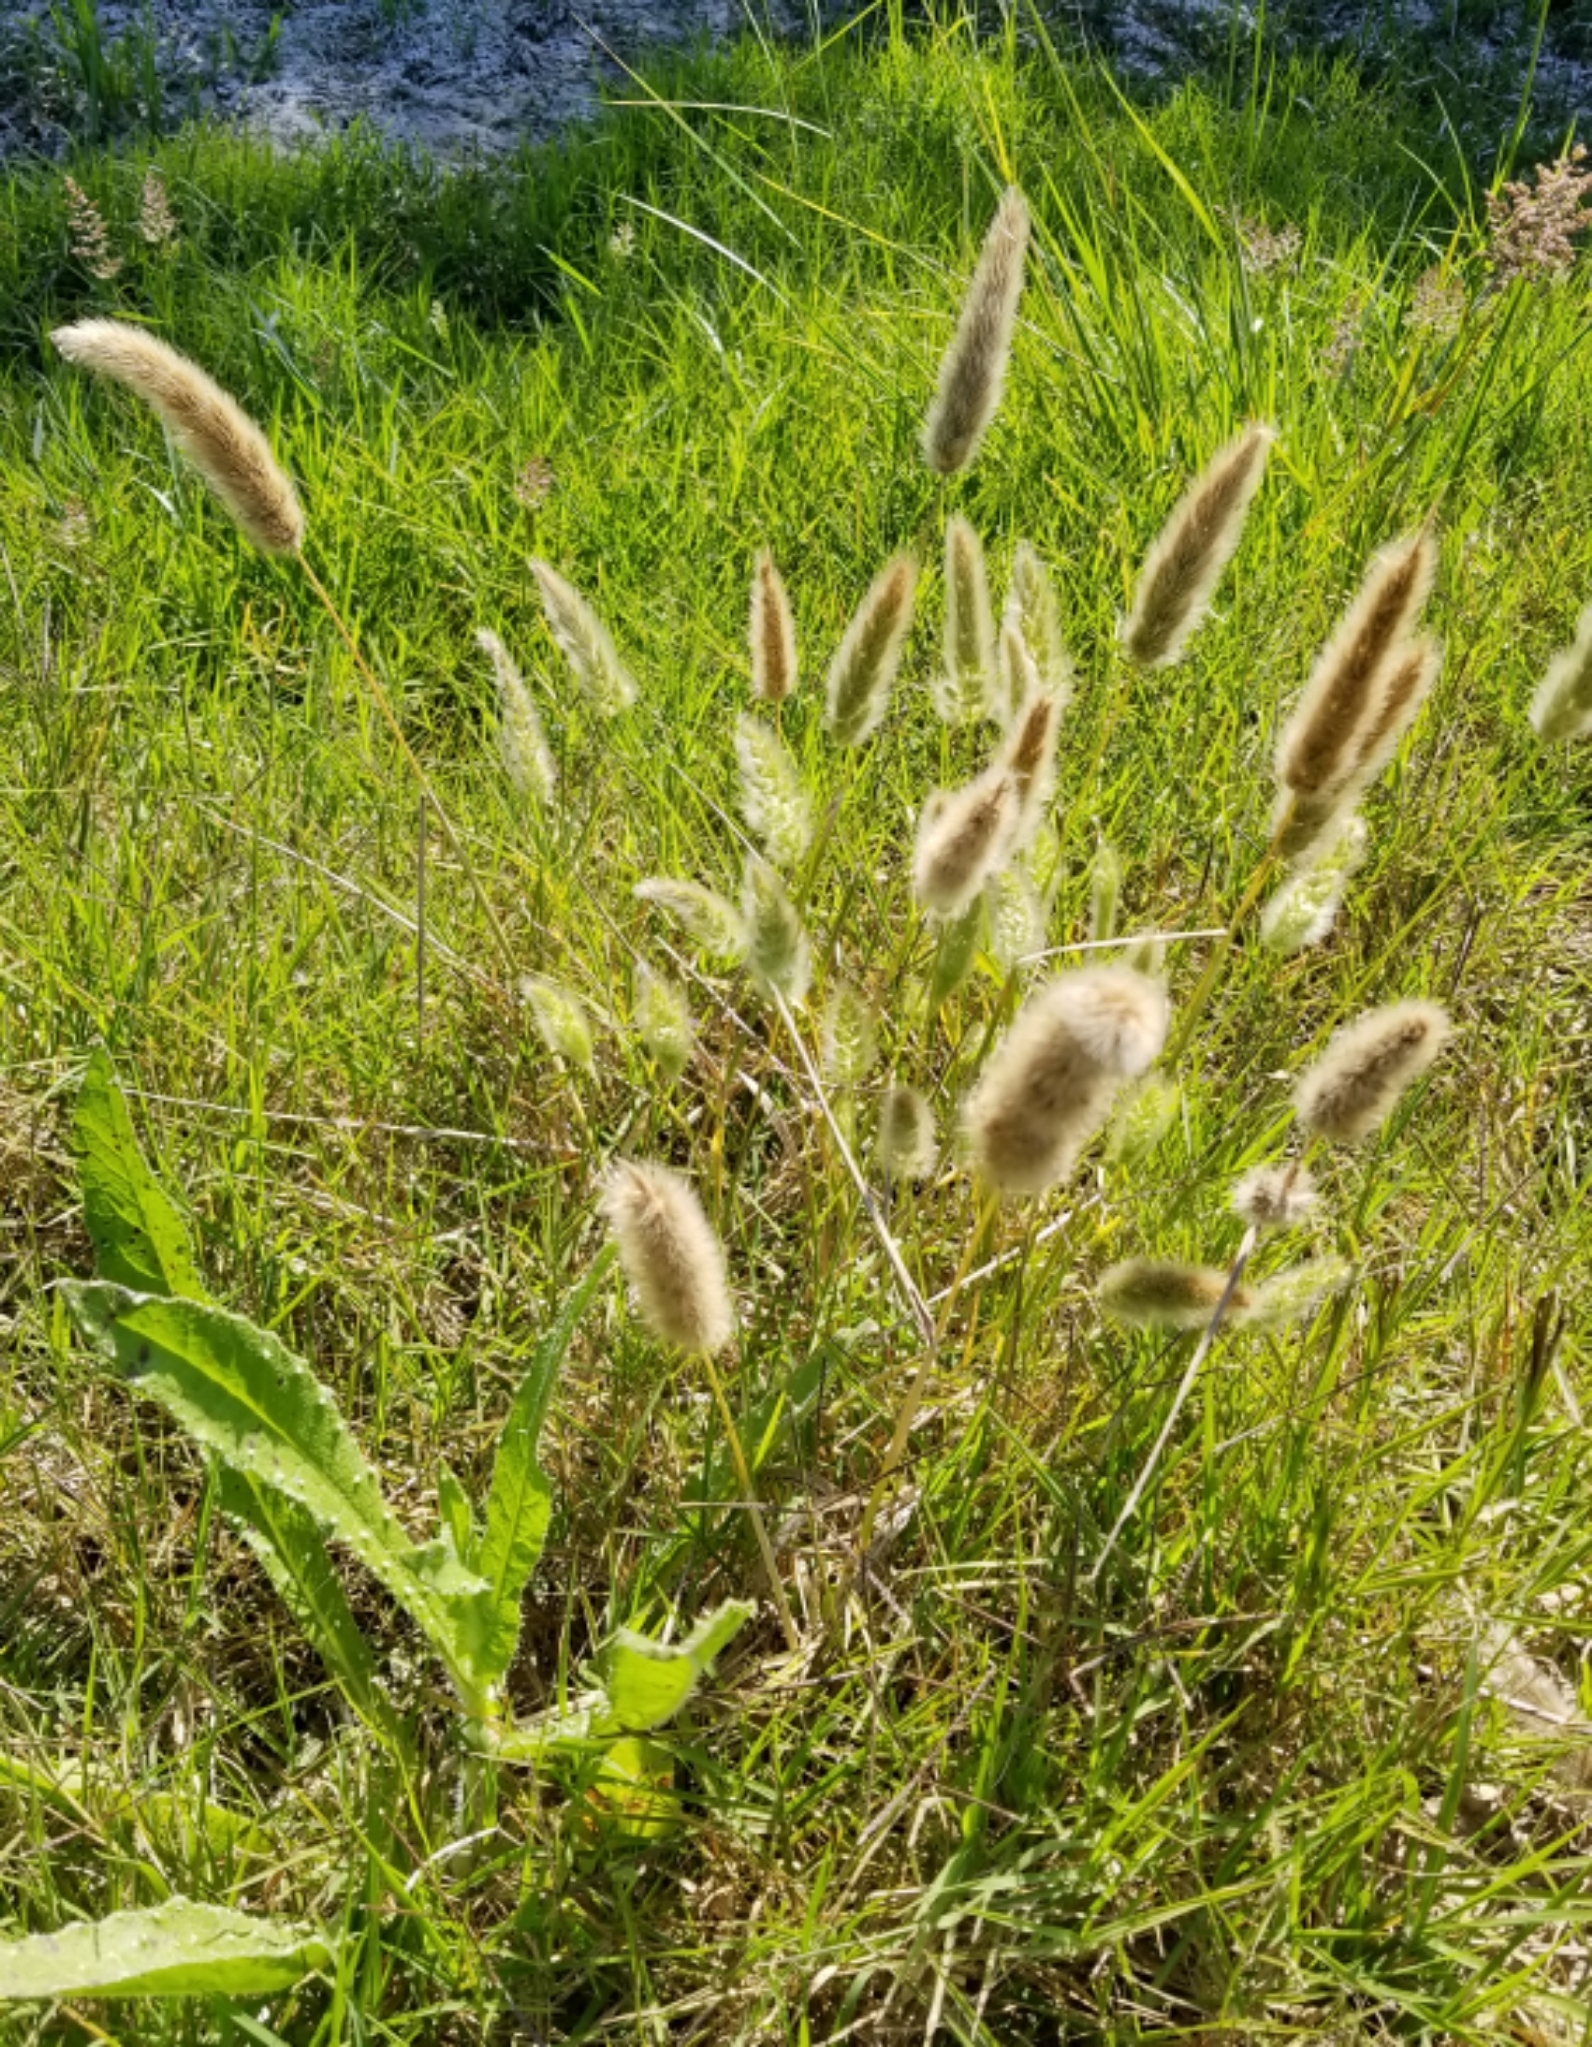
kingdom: Plantae
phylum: Tracheophyta
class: Liliopsida
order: Poales
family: Poaceae
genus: Polypogon
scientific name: Polypogon monspeliensis
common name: Annual rabbitsfoot grass
